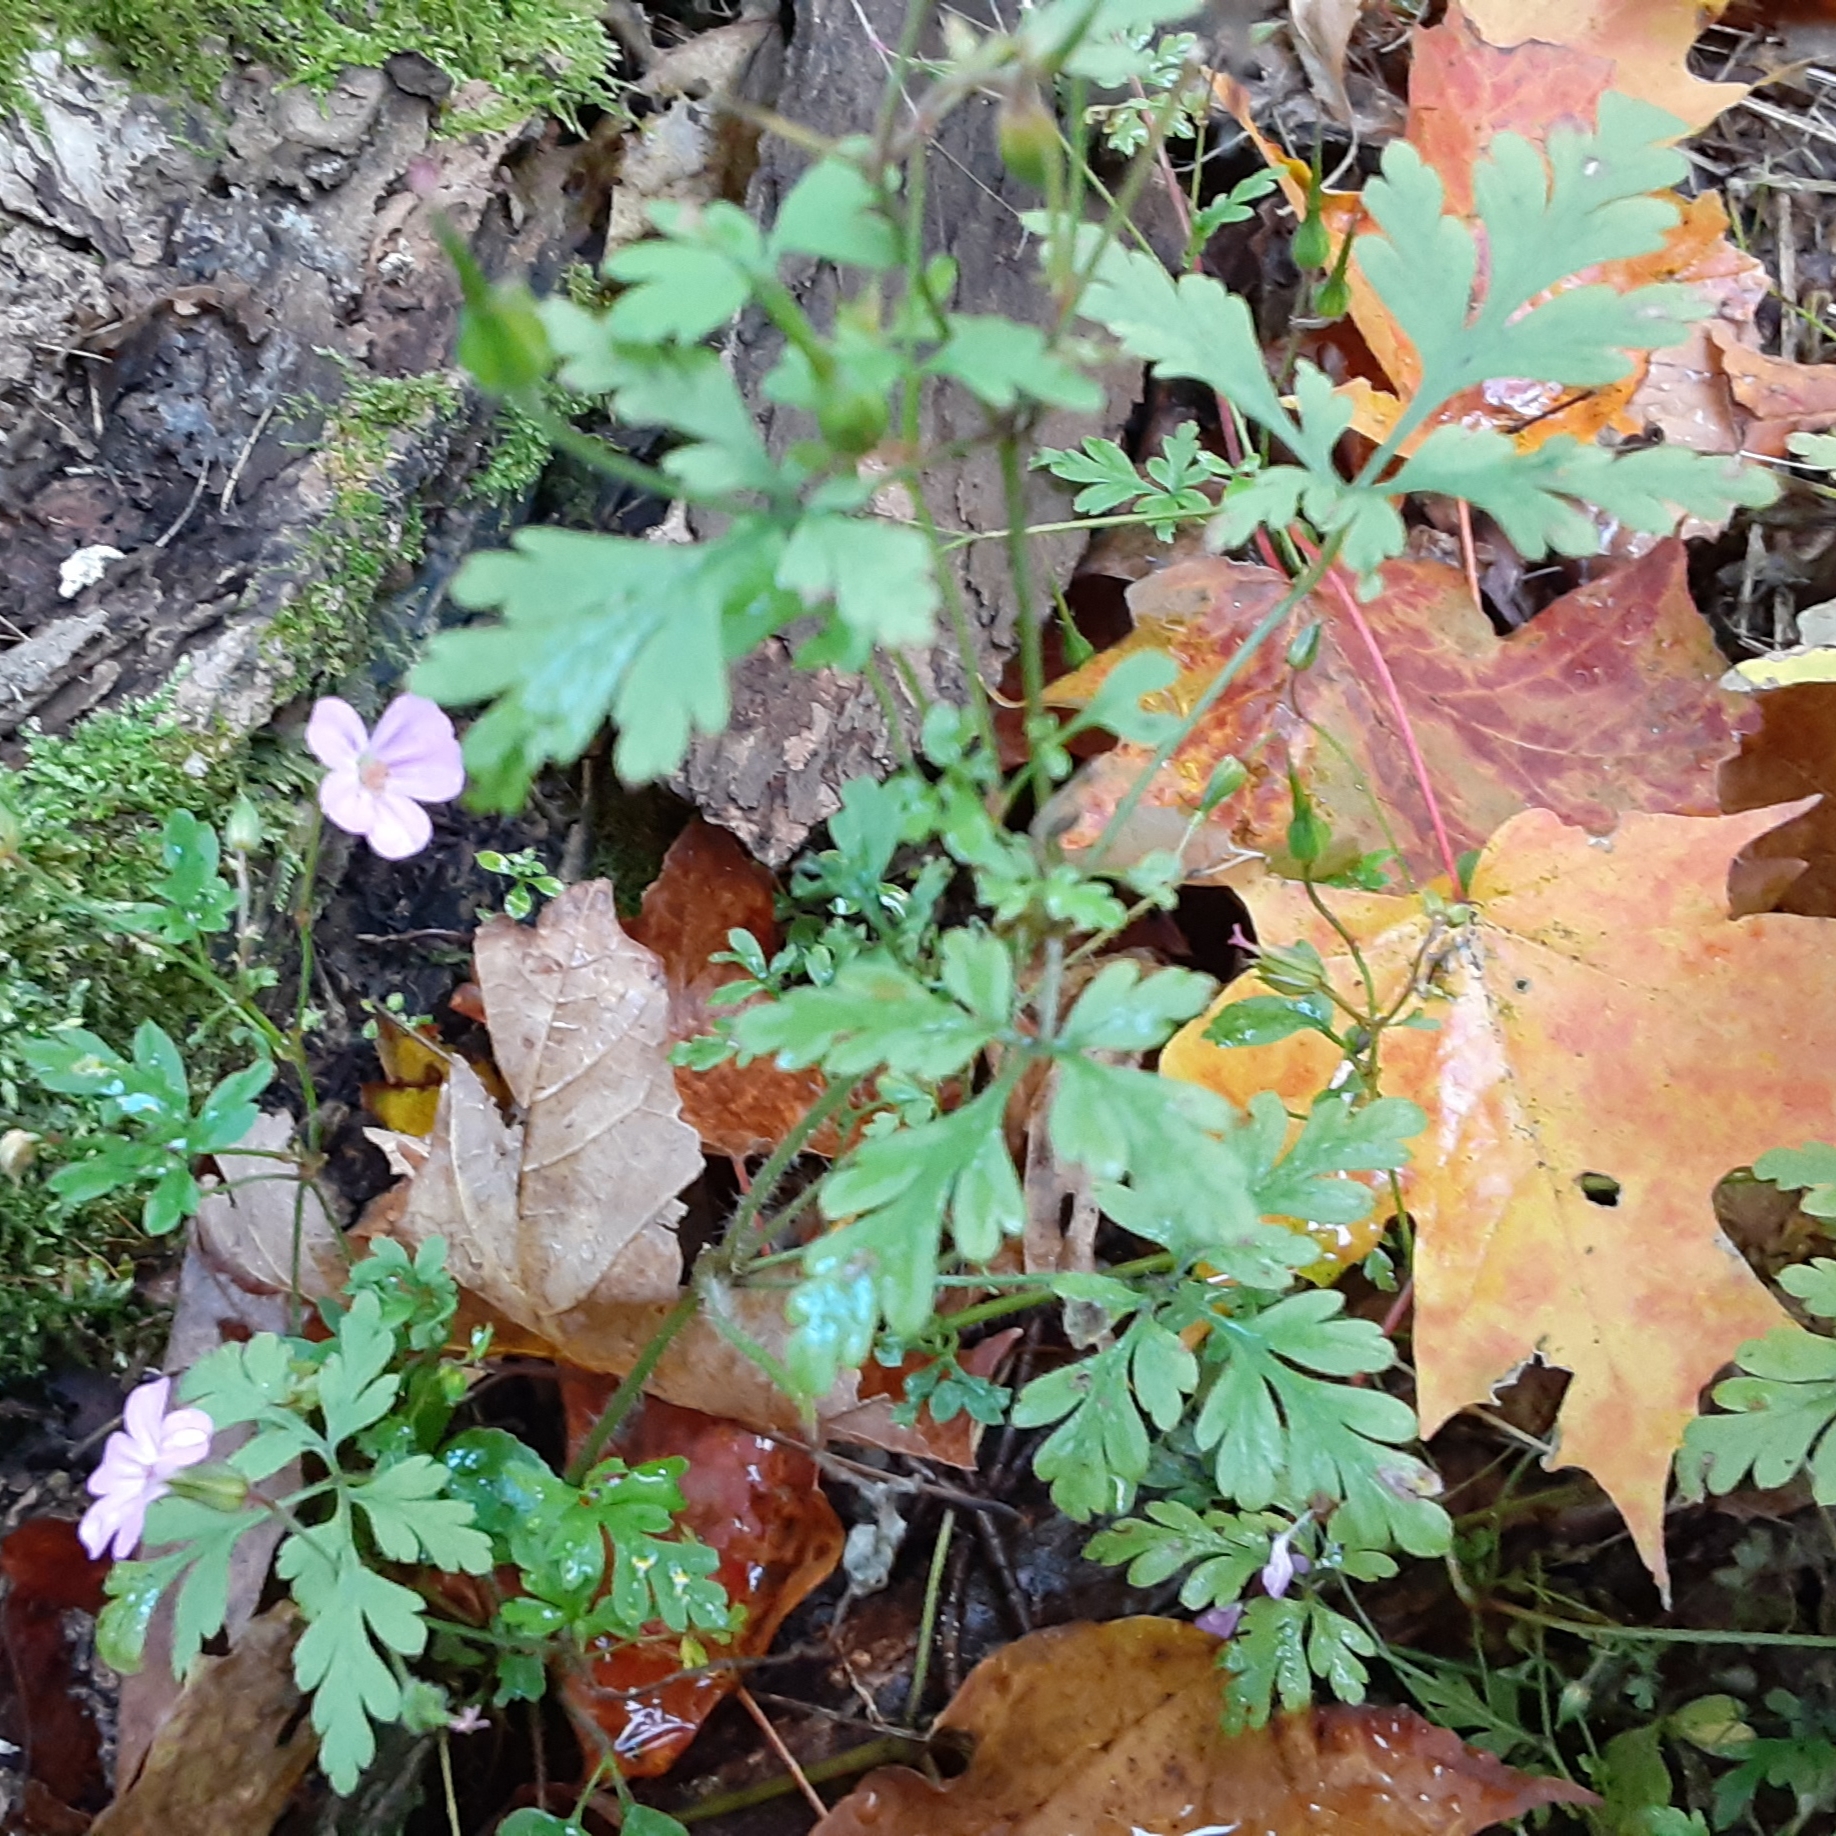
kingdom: Plantae
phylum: Tracheophyta
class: Magnoliopsida
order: Geraniales
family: Geraniaceae
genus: Geranium
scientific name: Geranium robertianum
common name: Herb-robert
